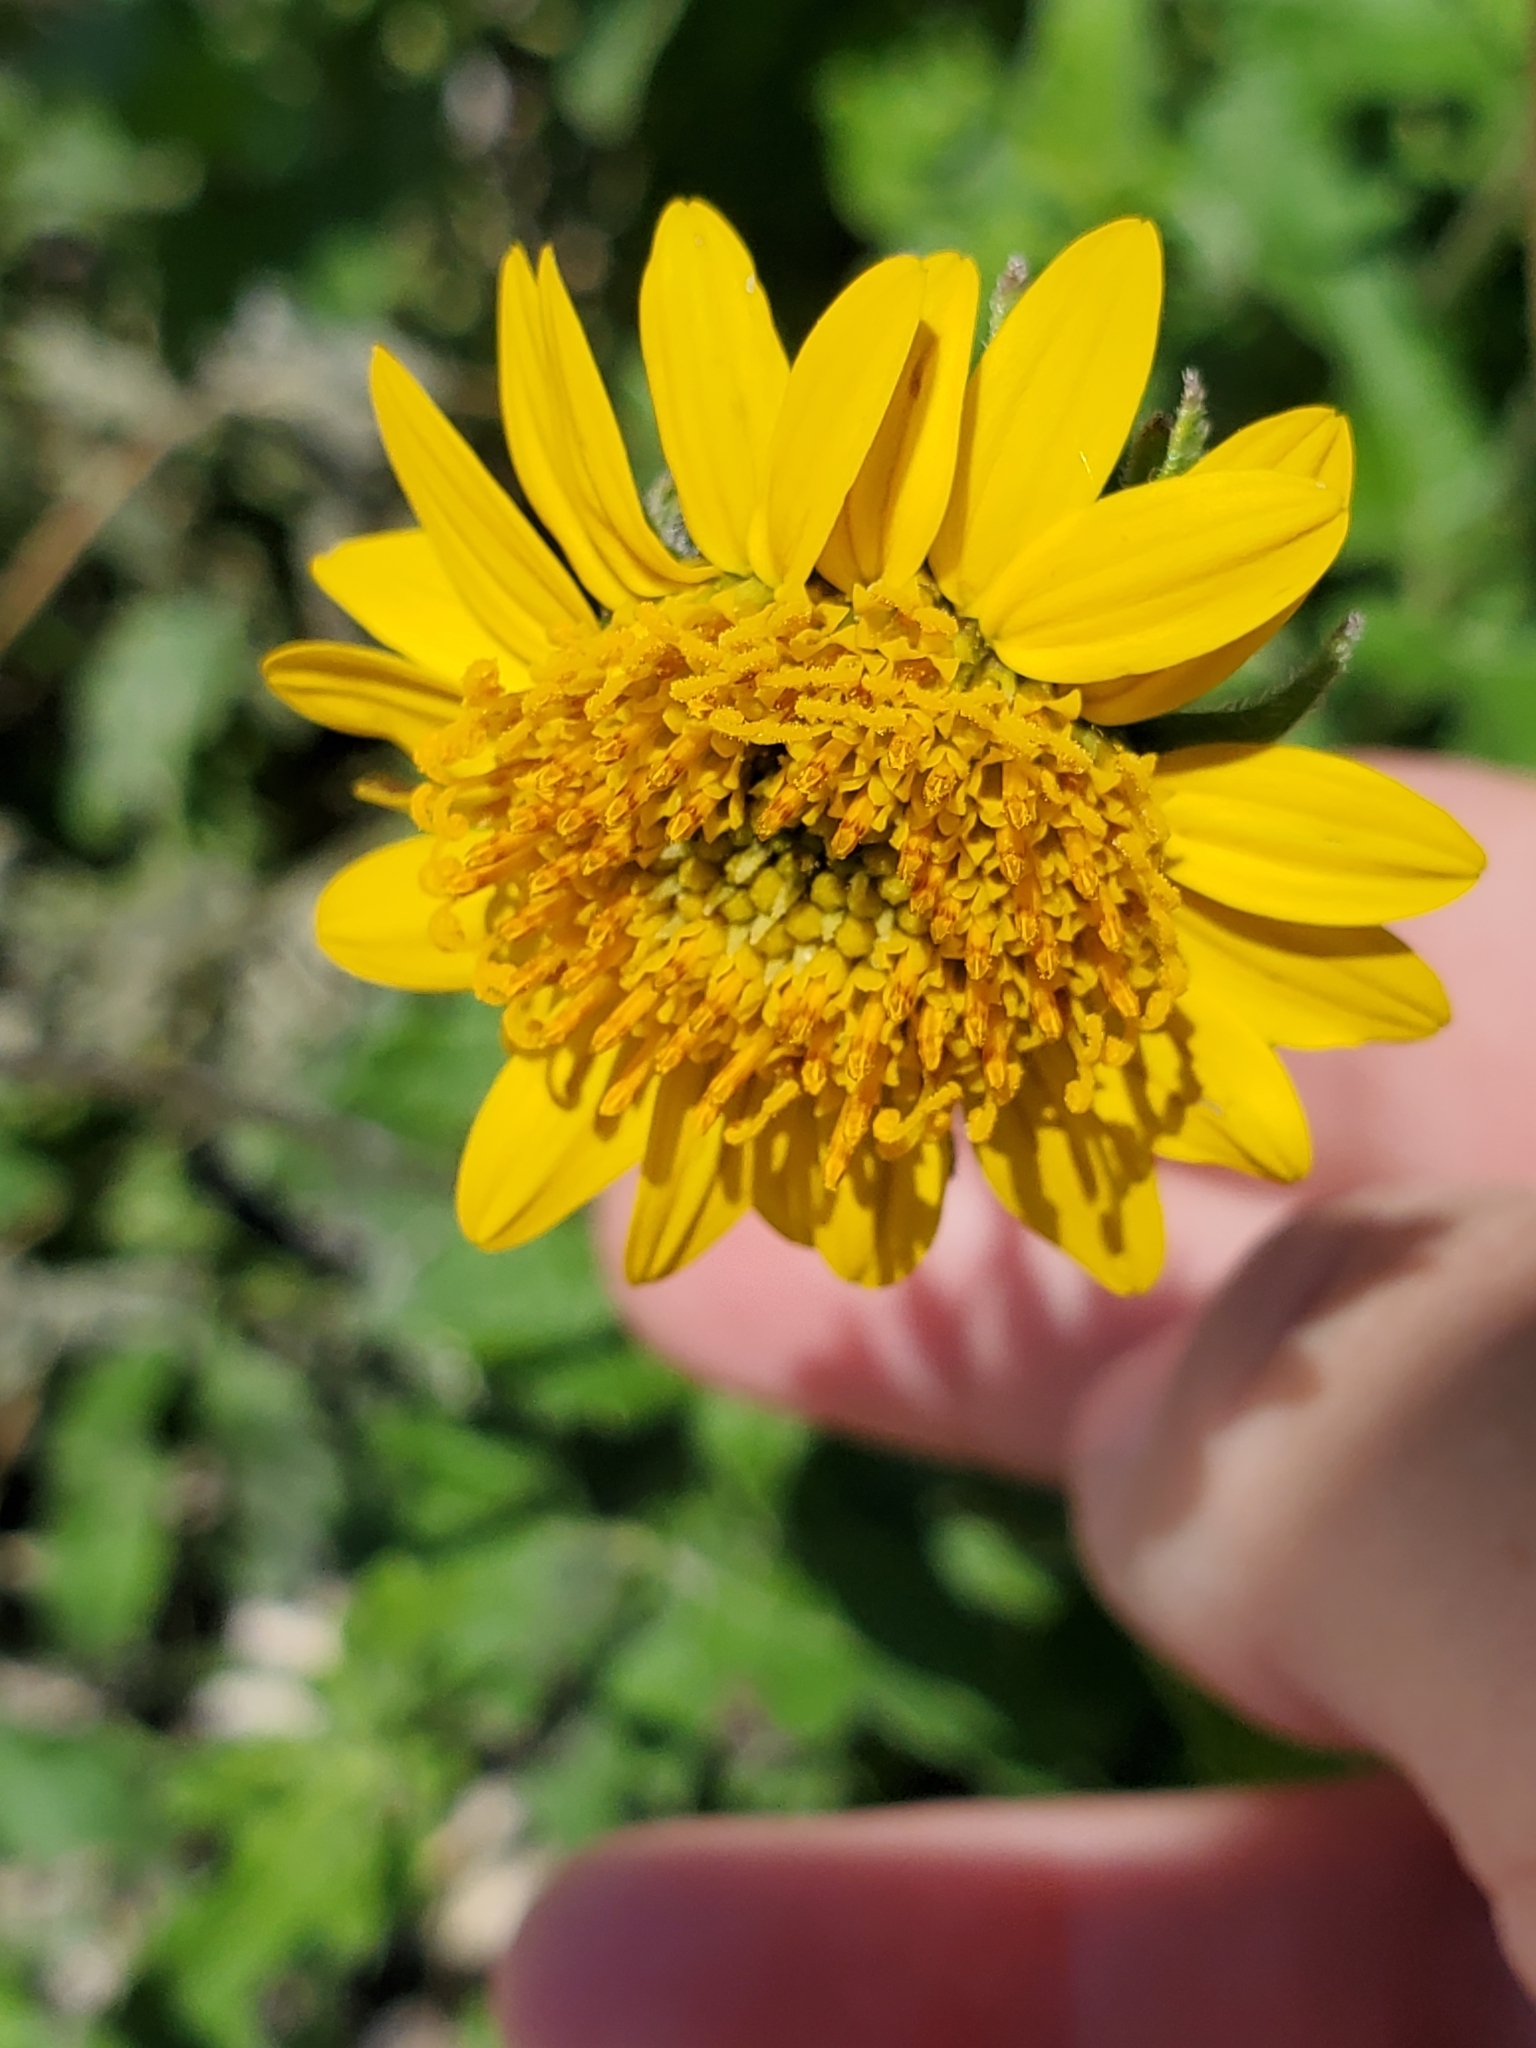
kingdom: Plantae
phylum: Tracheophyta
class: Magnoliopsida
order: Asterales
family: Asteraceae
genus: Simsia
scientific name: Simsia calva
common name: Awnless bush-sunflower
